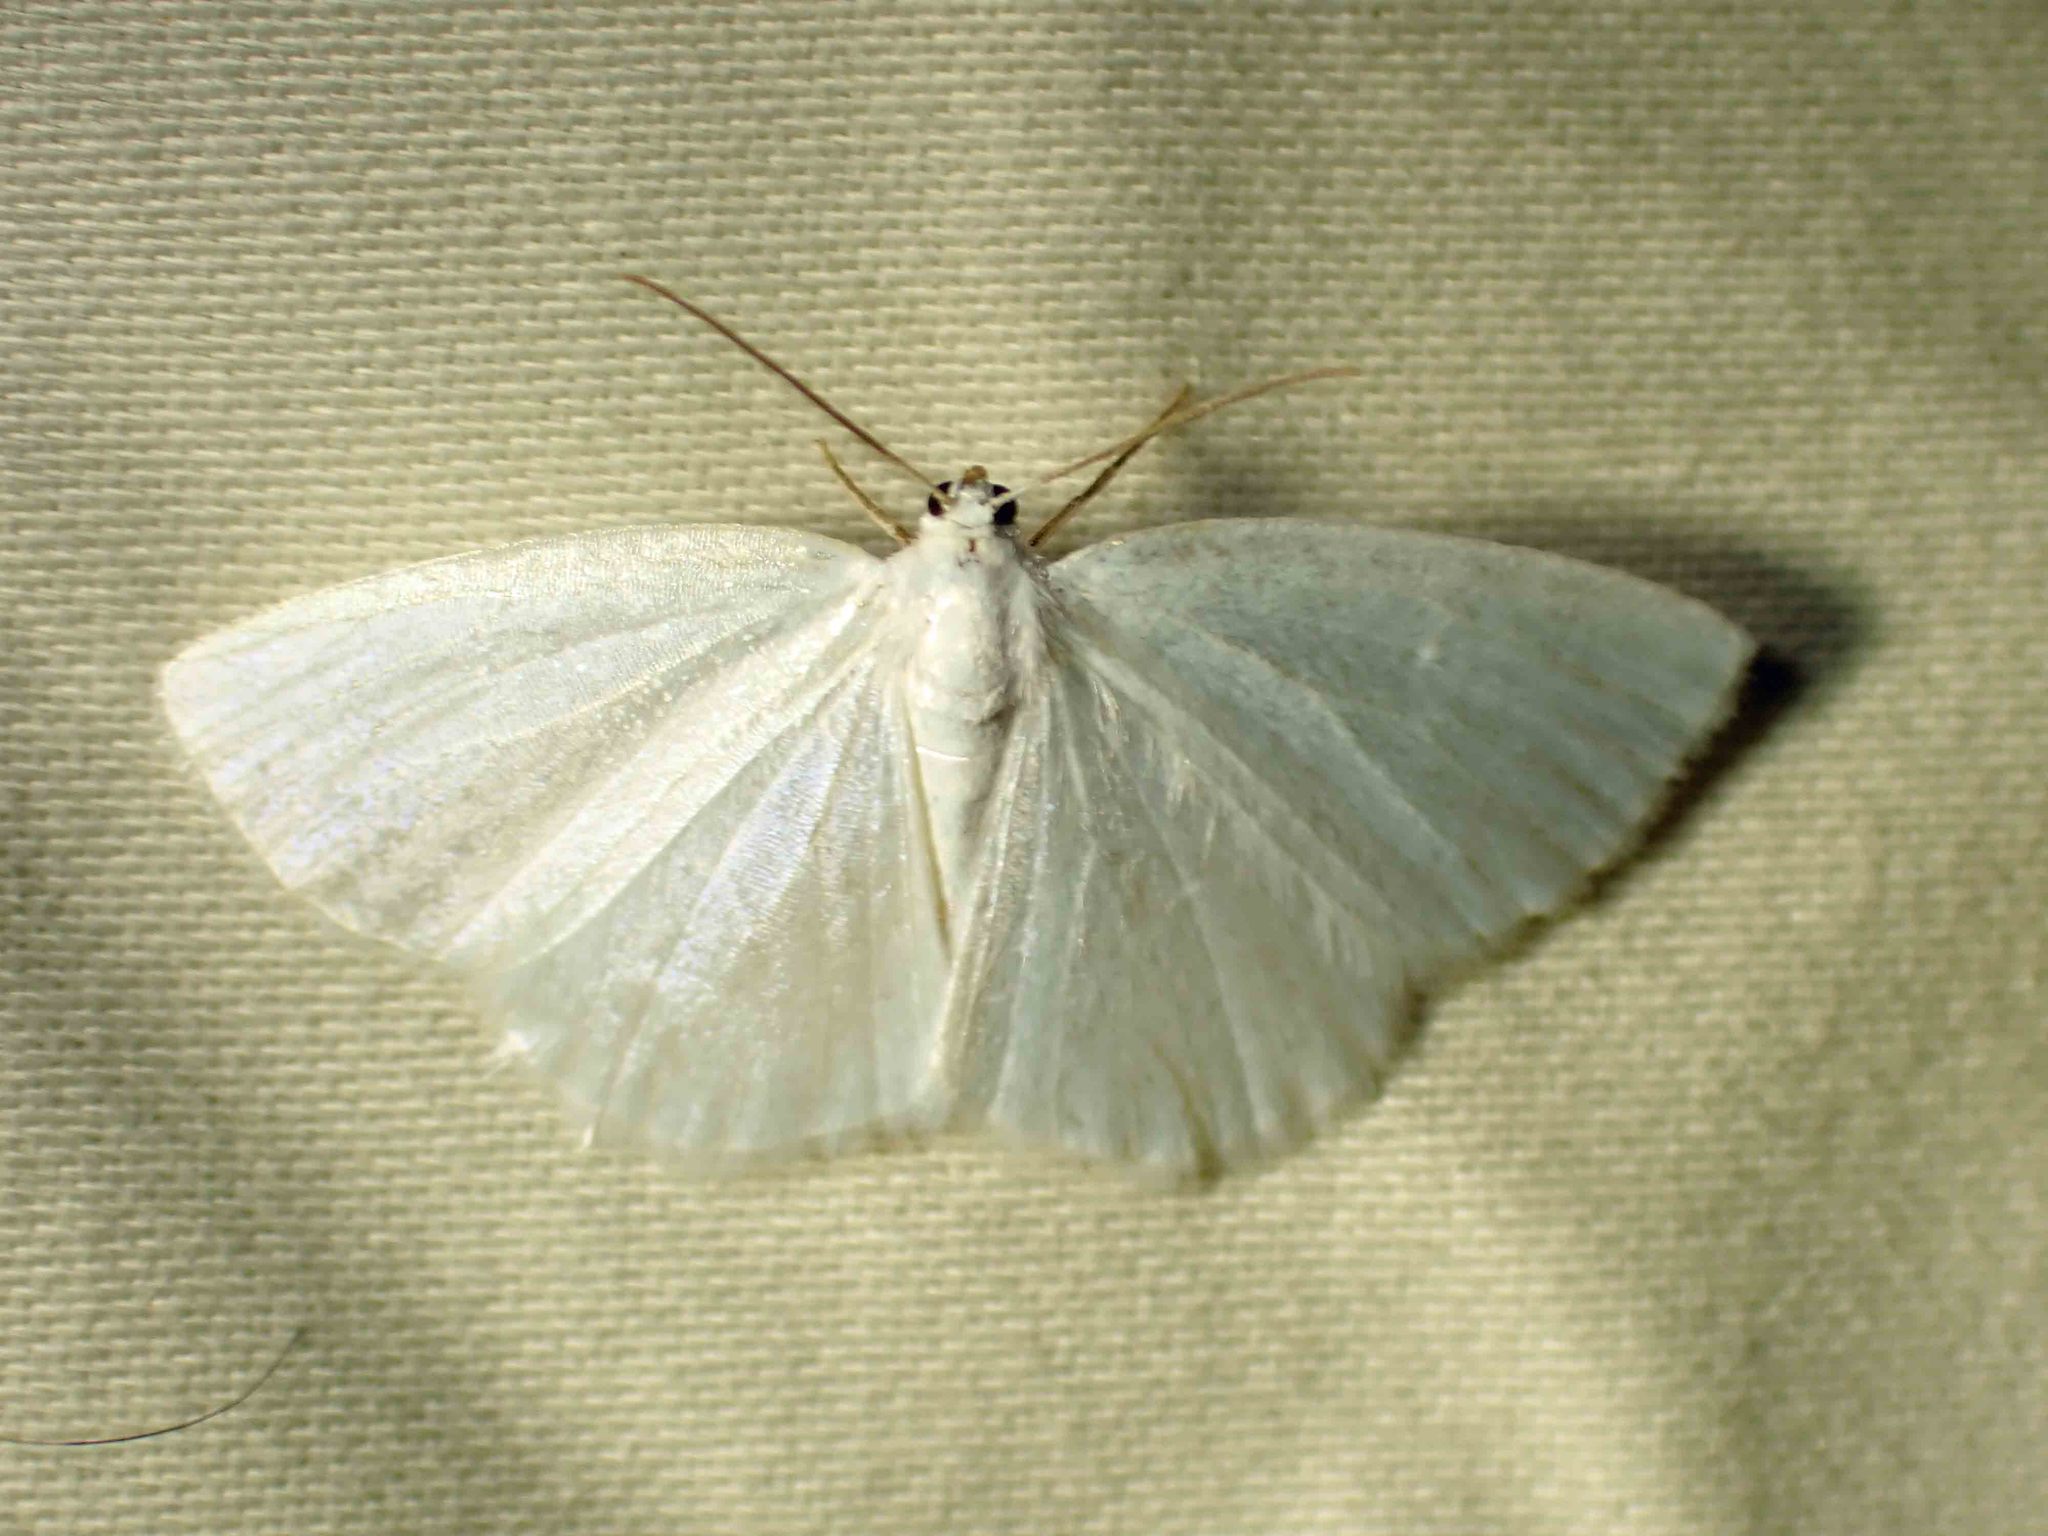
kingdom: Animalia
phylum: Arthropoda
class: Insecta
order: Lepidoptera
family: Geometridae
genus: Lomographa
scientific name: Lomographa vestaliata
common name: White spring moth
